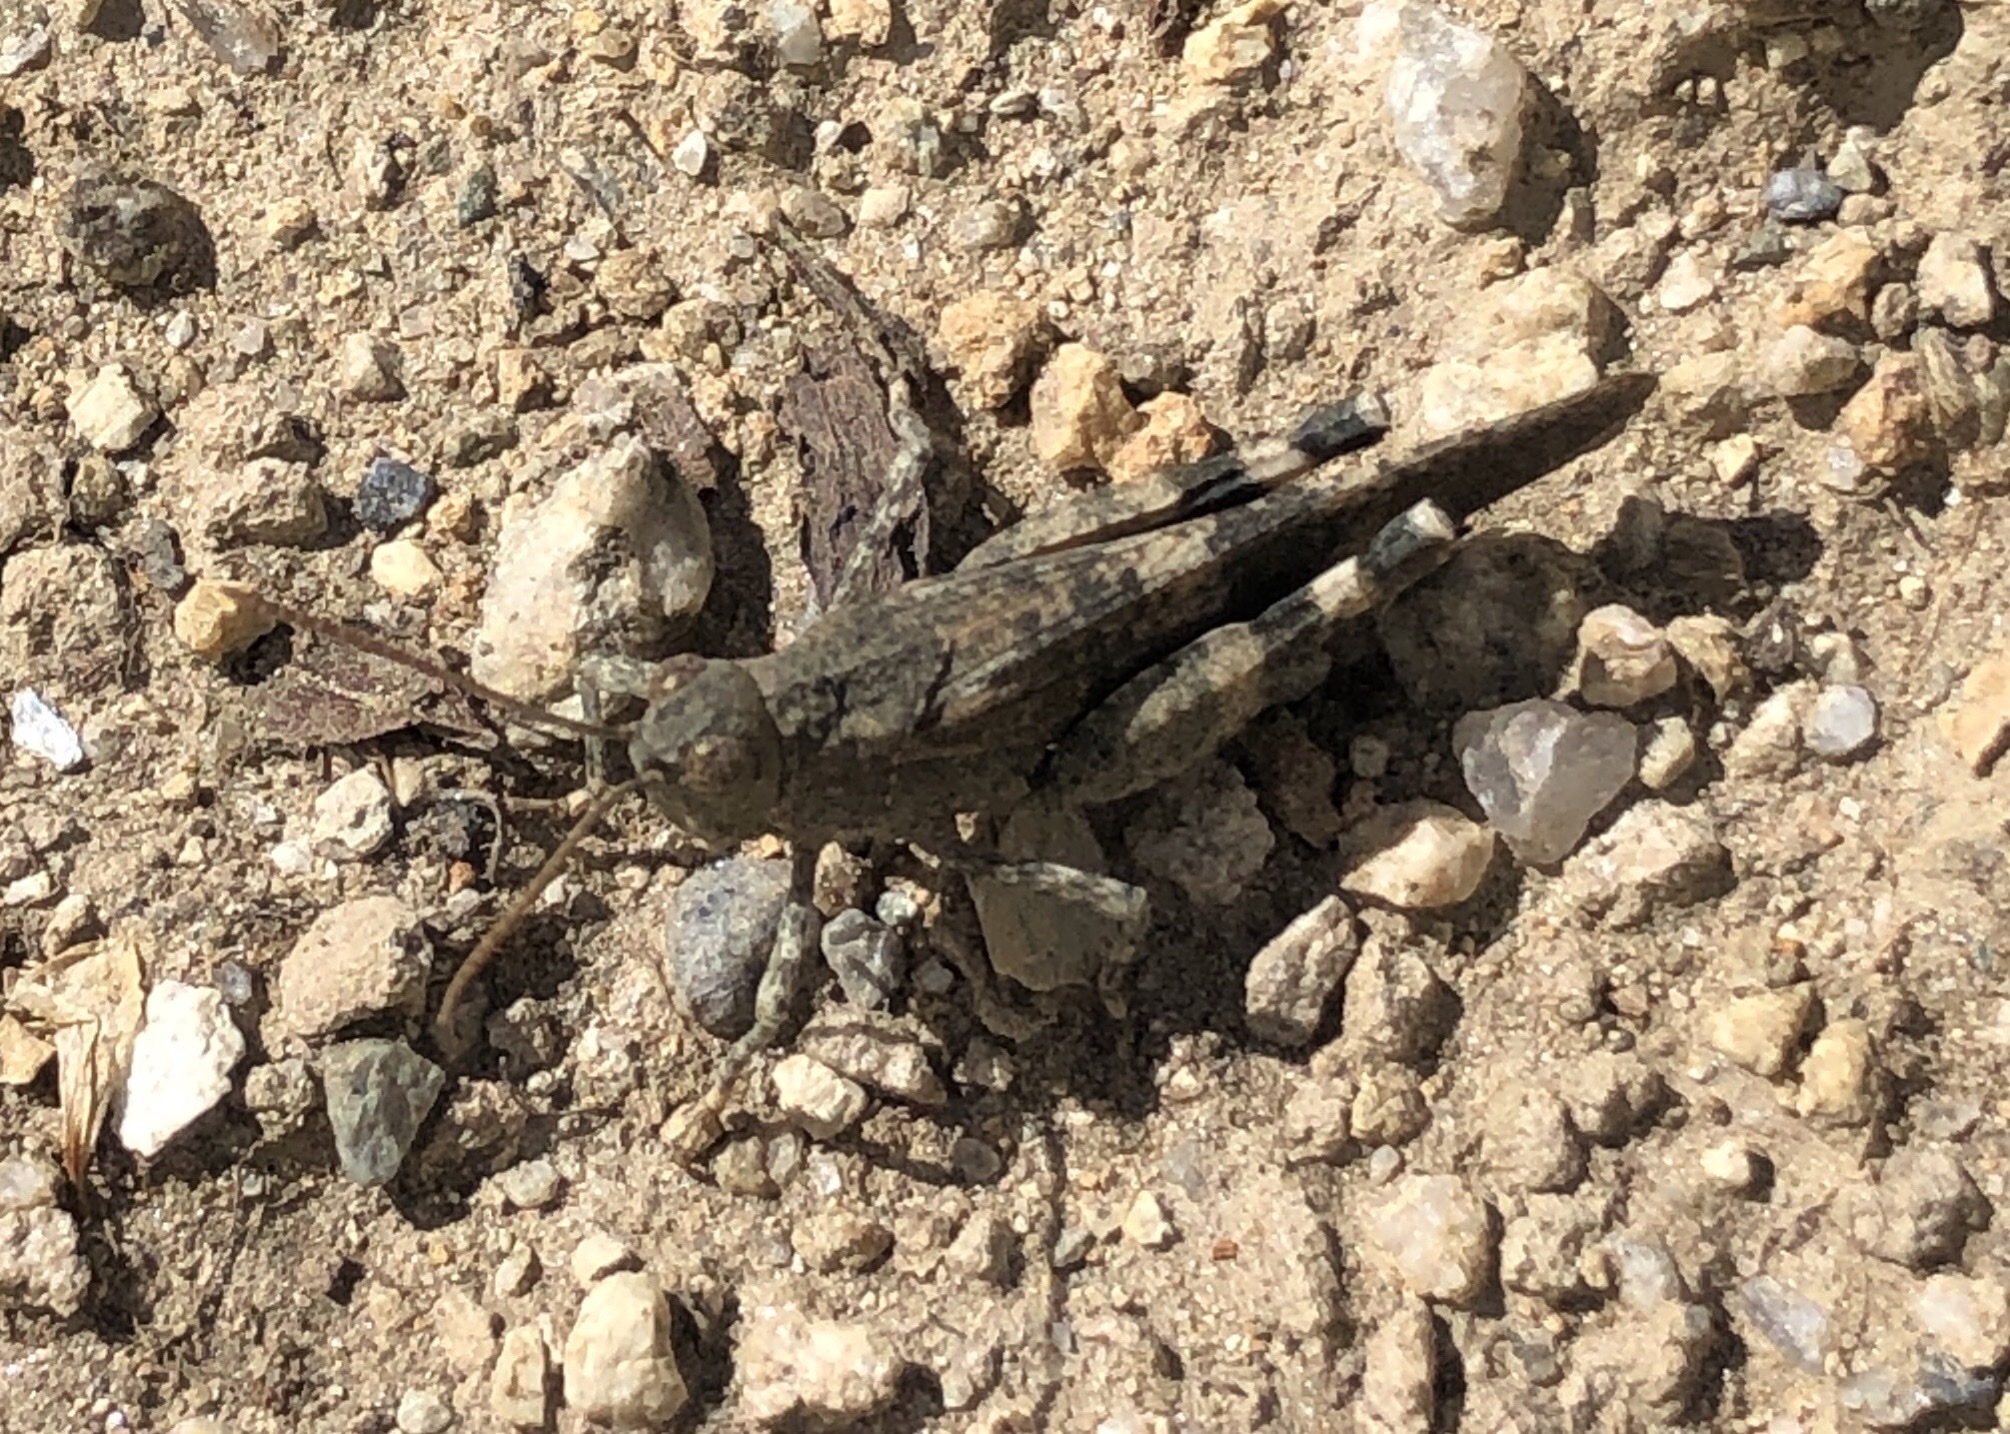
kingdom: Animalia
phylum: Arthropoda
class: Insecta
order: Orthoptera
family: Acrididae
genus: Oedipoda
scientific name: Oedipoda germanica
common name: Red band-winged grasshopper
